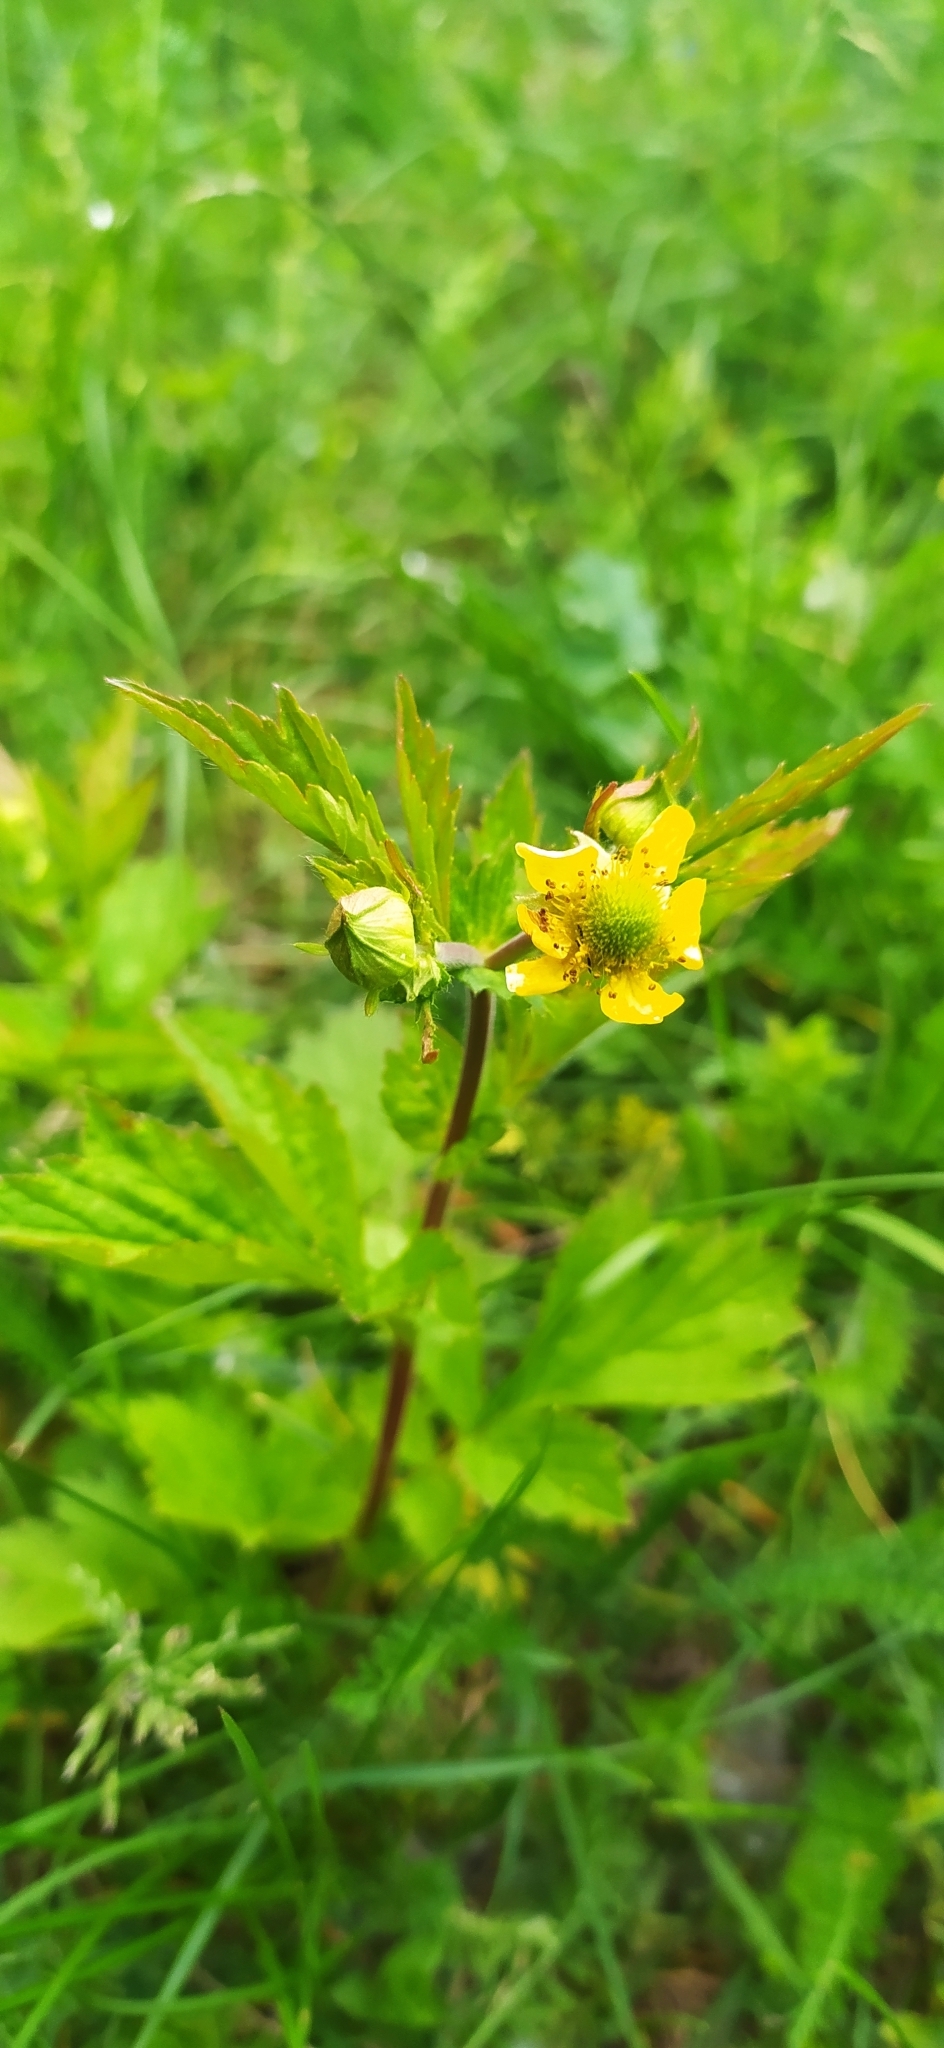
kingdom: Plantae
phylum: Tracheophyta
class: Magnoliopsida
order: Rosales
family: Rosaceae
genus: Geum
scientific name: Geum aleppicum
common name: Yellow avens
